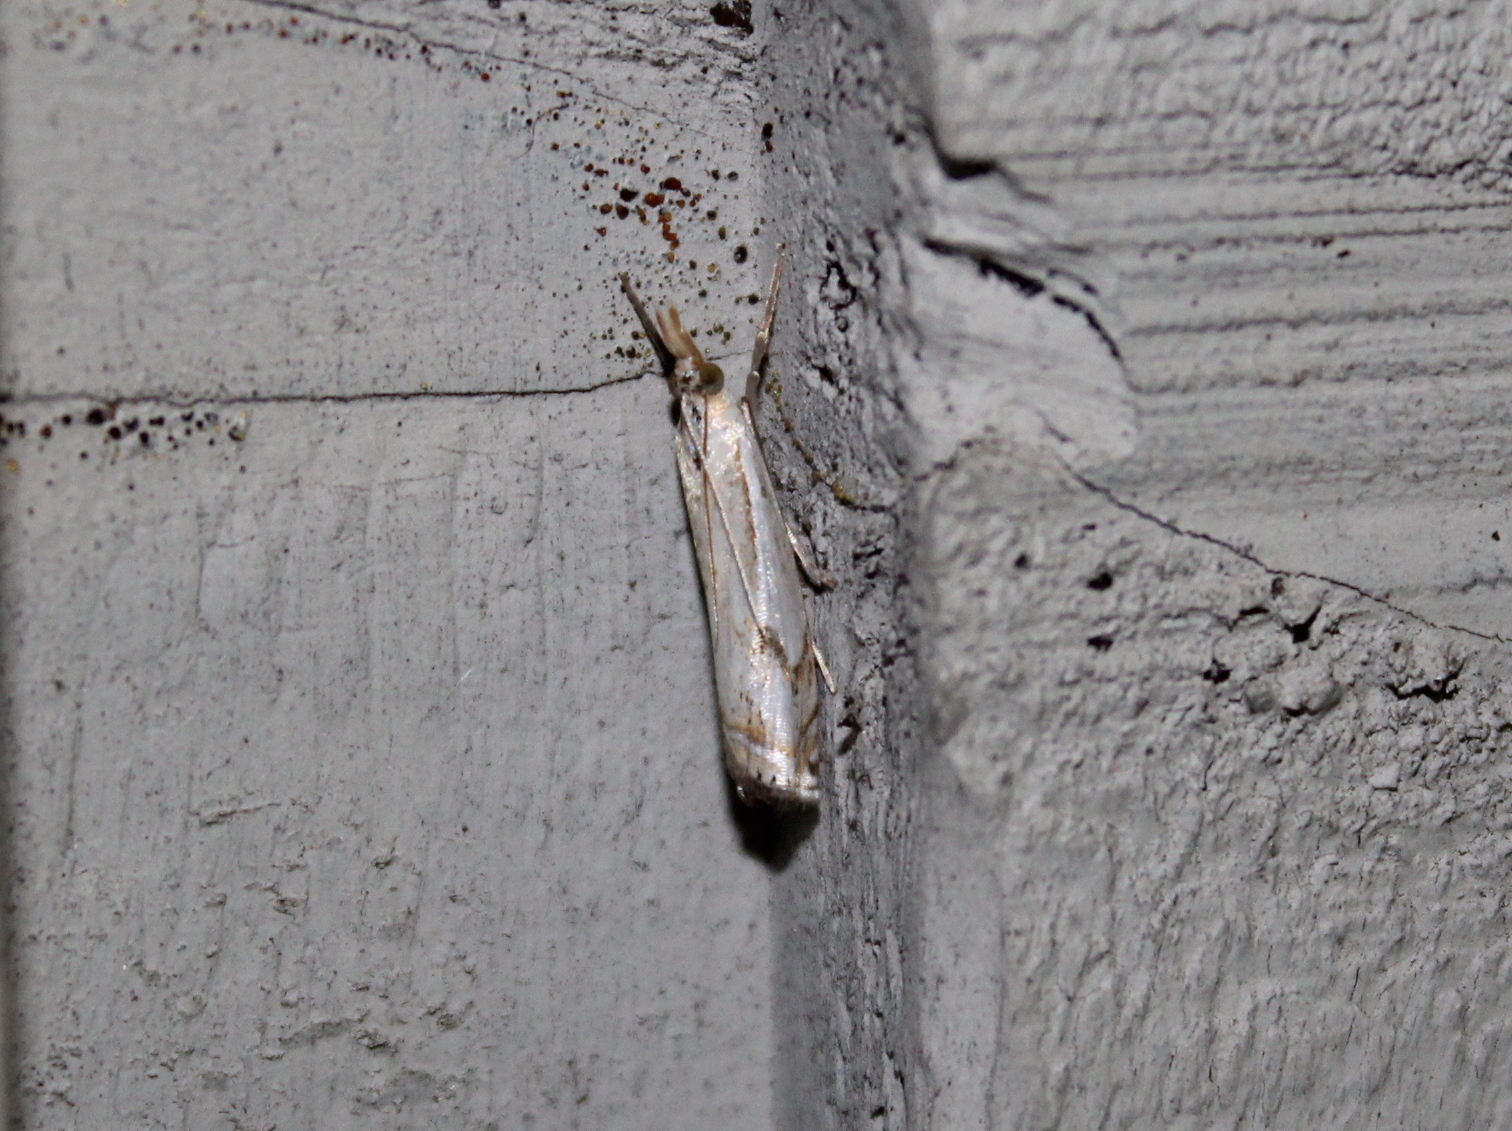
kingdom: Animalia
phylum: Arthropoda
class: Insecta
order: Lepidoptera
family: Crambidae
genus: Crambus
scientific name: Crambus agitatellus
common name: Double-banded grass-veneer
